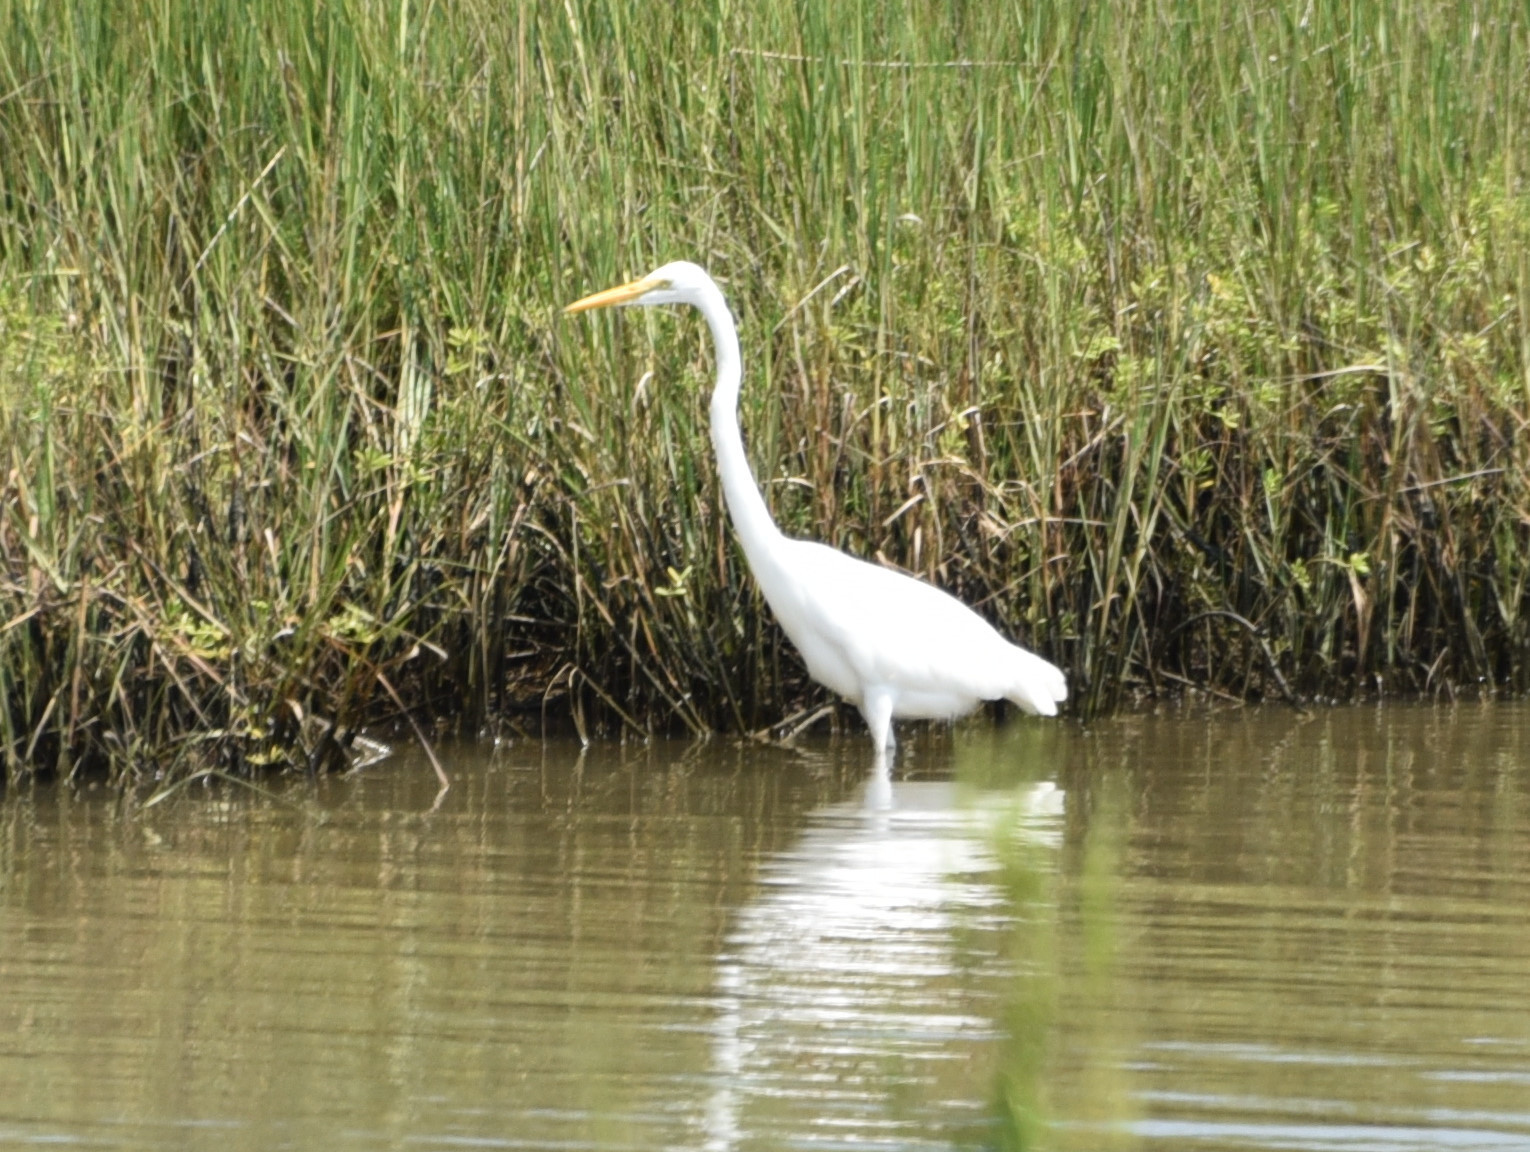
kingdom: Animalia
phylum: Chordata
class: Aves
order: Pelecaniformes
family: Ardeidae
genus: Ardea
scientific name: Ardea alba
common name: Great egret
